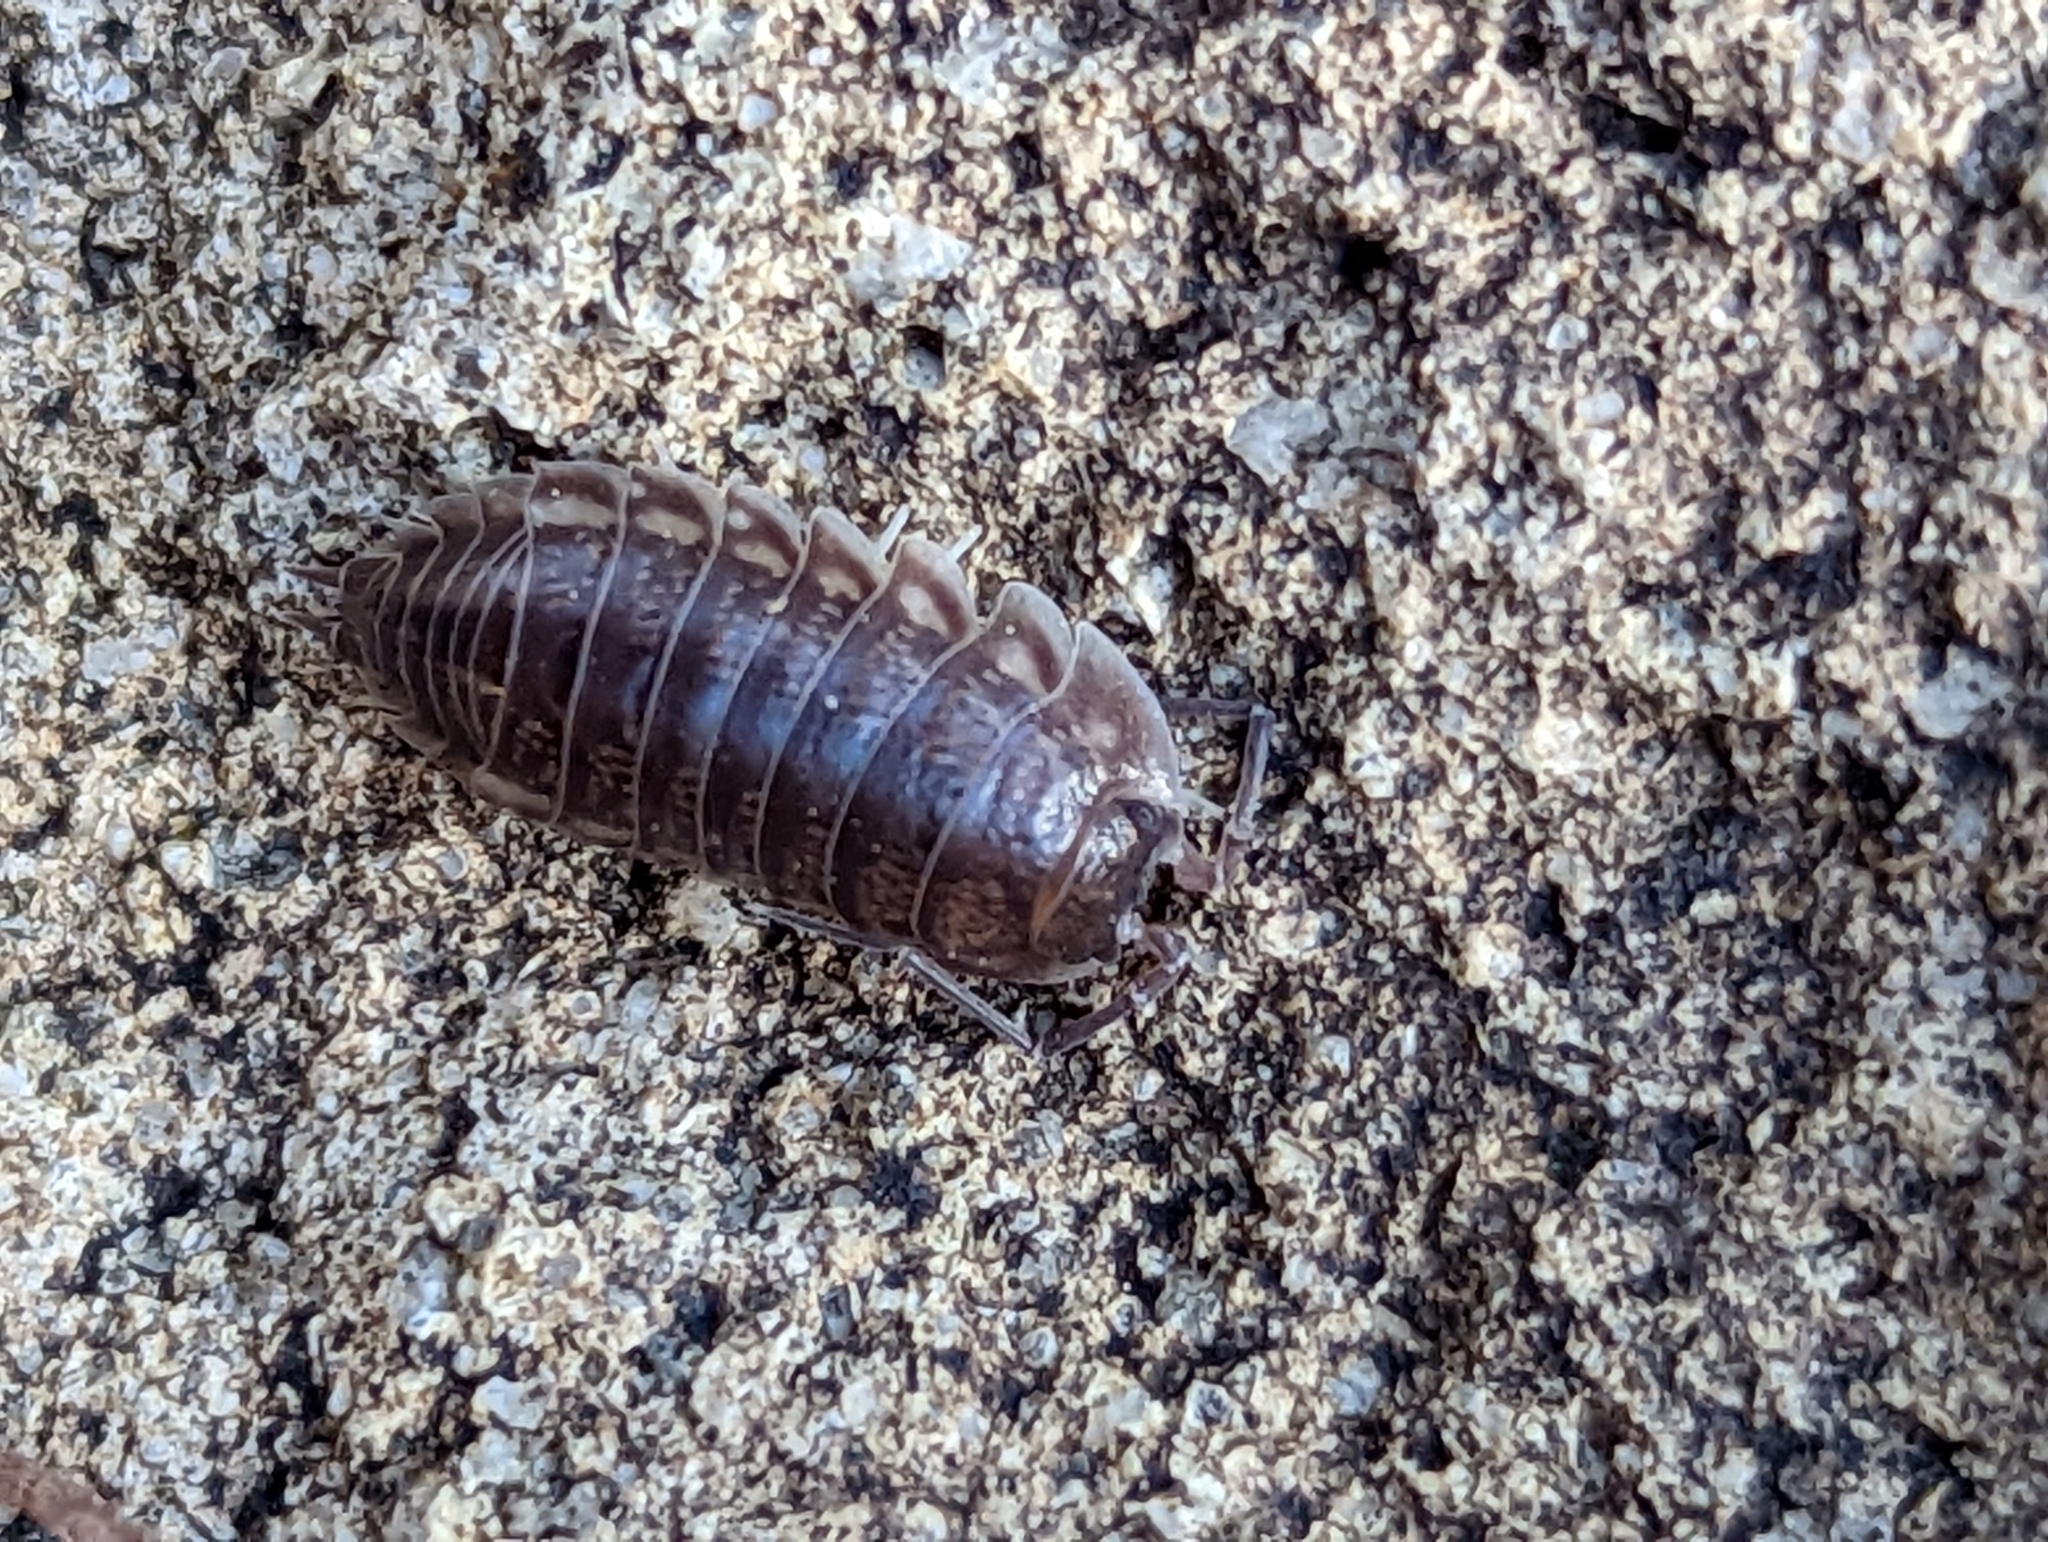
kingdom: Animalia
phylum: Arthropoda
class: Malacostraca
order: Isopoda
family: Cylisticidae
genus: Cylisticus
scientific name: Cylisticus convexus
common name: Curly woodlouse
